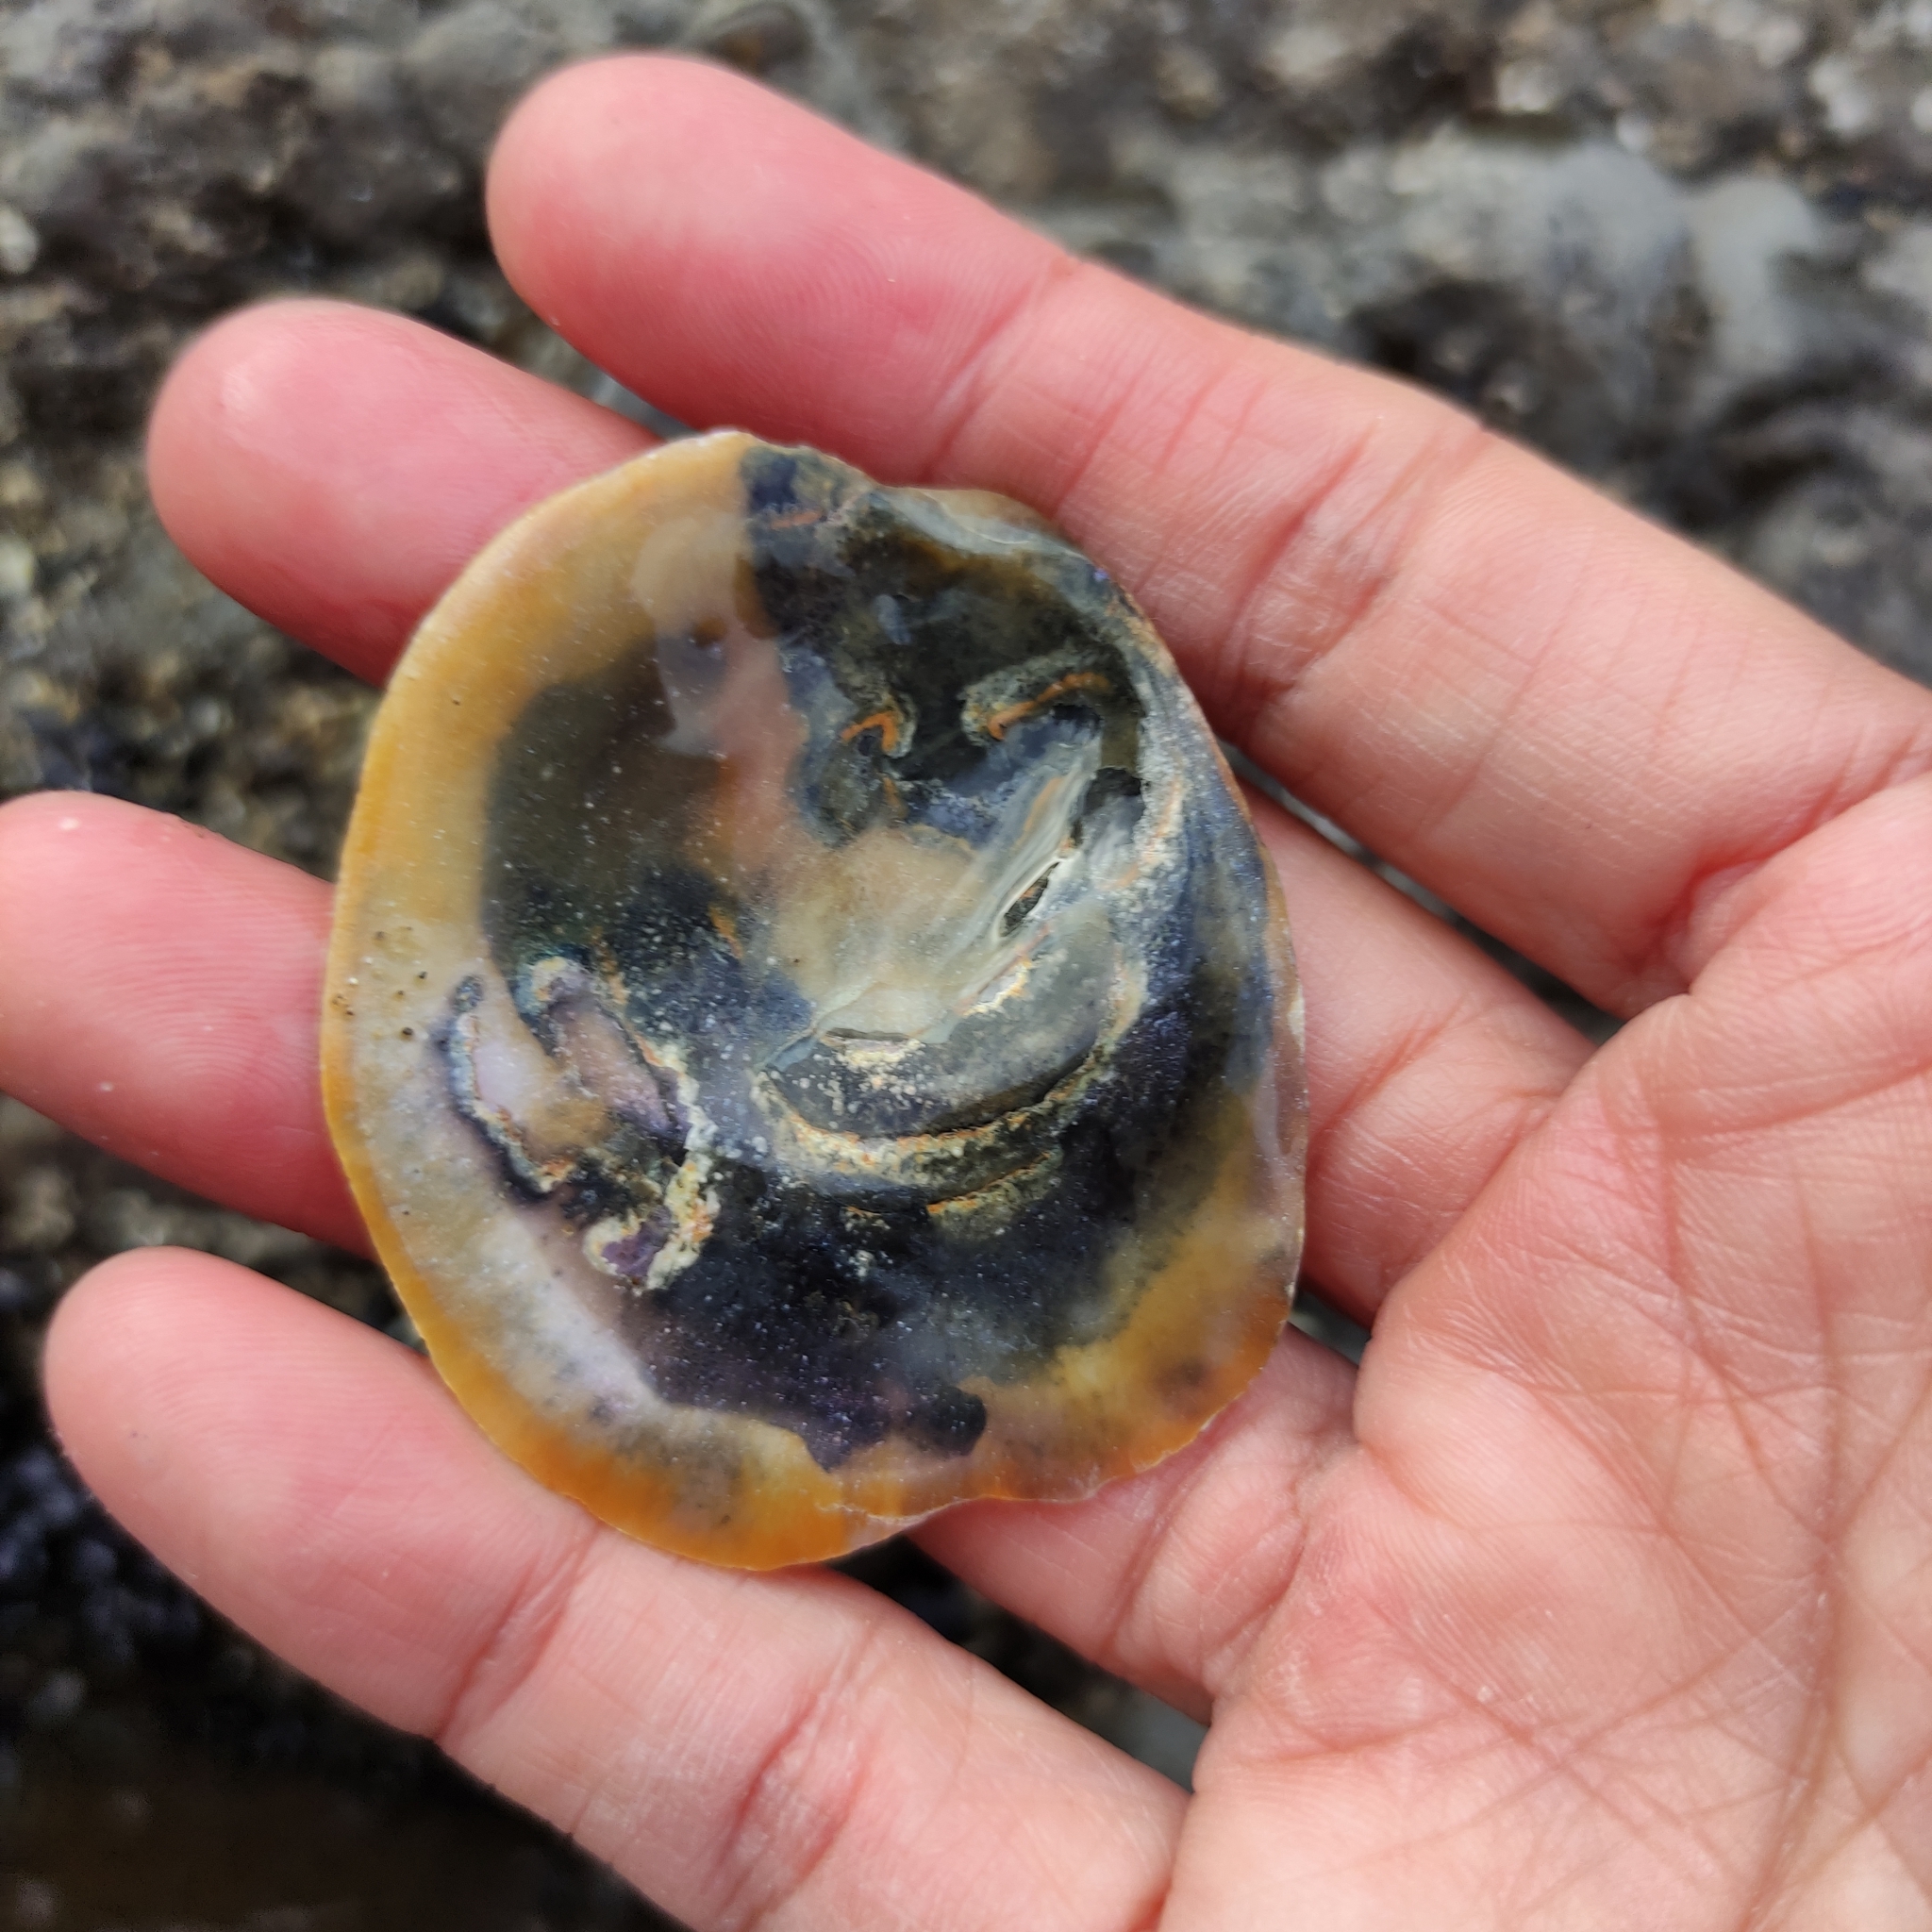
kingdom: Animalia
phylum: Mollusca
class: Bivalvia
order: Ostreida
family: Ostreidae
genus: Ostrea
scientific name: Ostrea chilensis
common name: Chilean oyster
